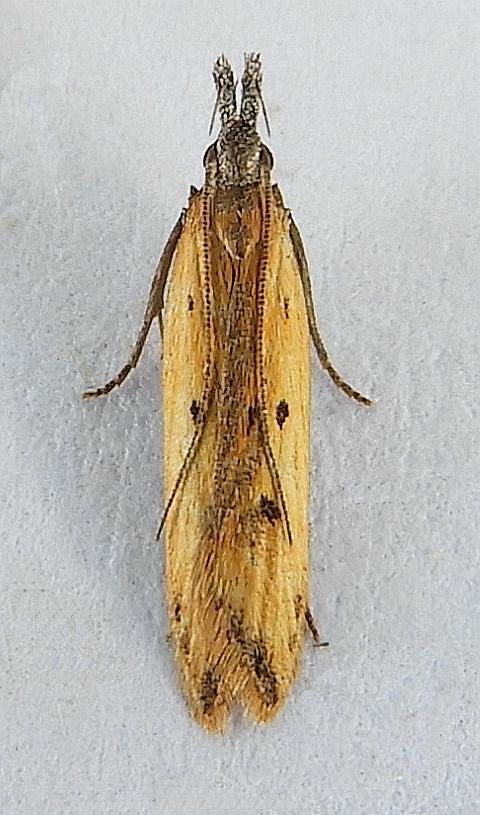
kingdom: Animalia
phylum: Arthropoda
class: Insecta
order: Lepidoptera
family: Gelechiidae
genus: Dichomeris
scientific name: Dichomeris nenia
